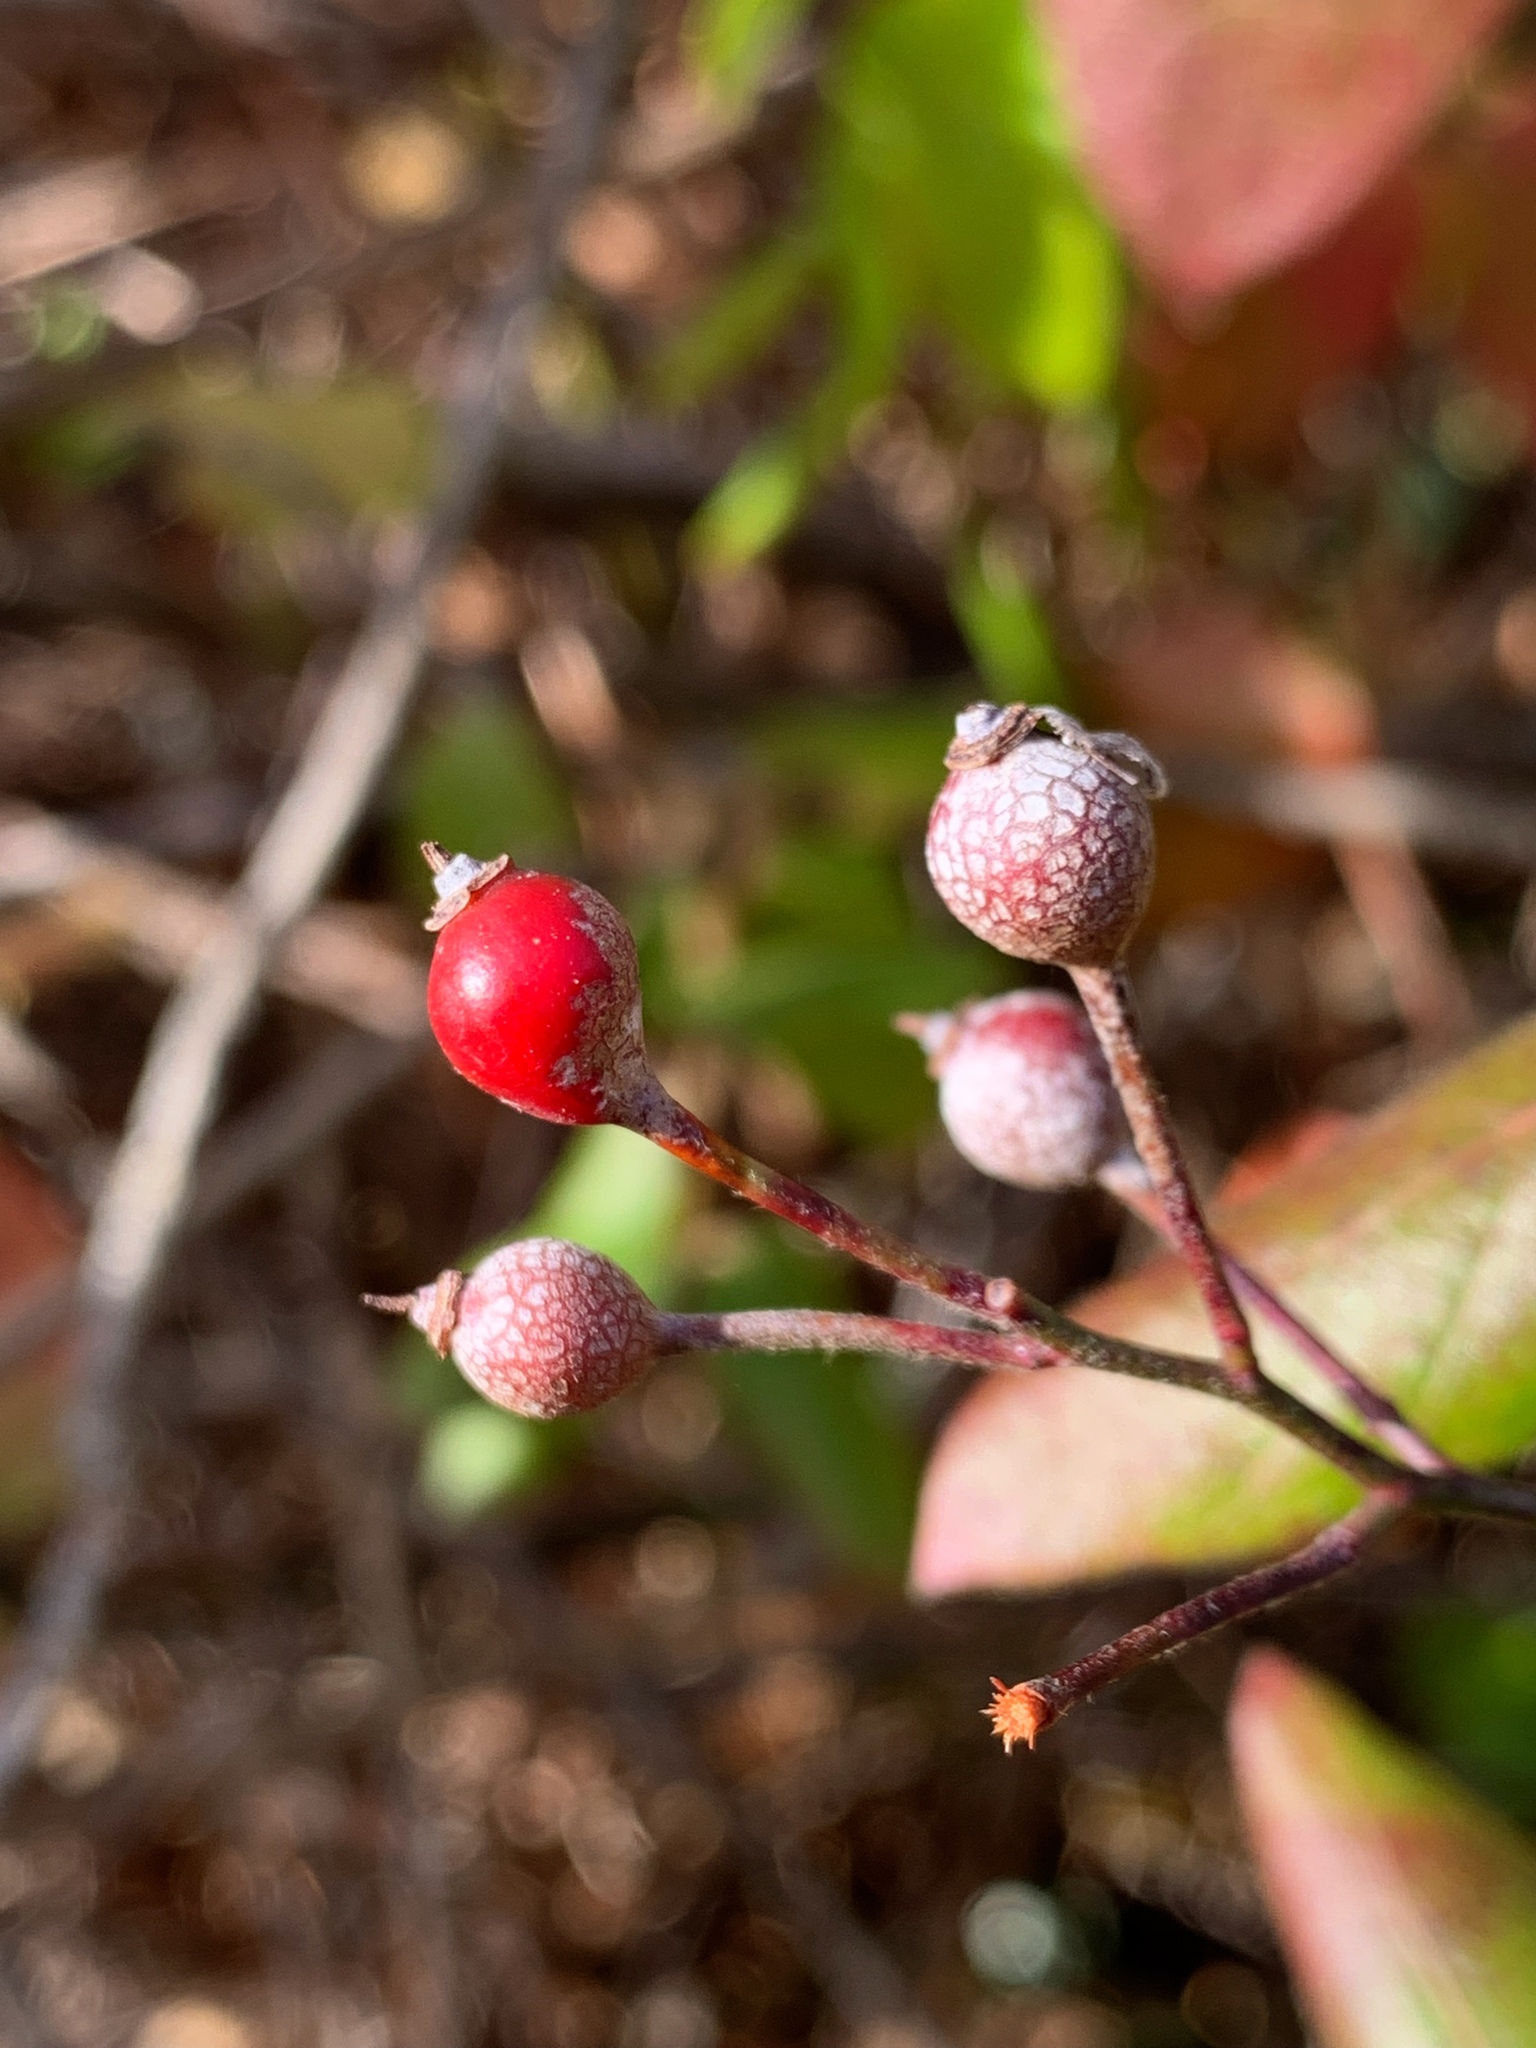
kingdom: Plantae
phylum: Tracheophyta
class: Magnoliopsida
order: Rosales
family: Rosaceae
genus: Rosa
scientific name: Rosa multiflora
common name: Multiflora rose
